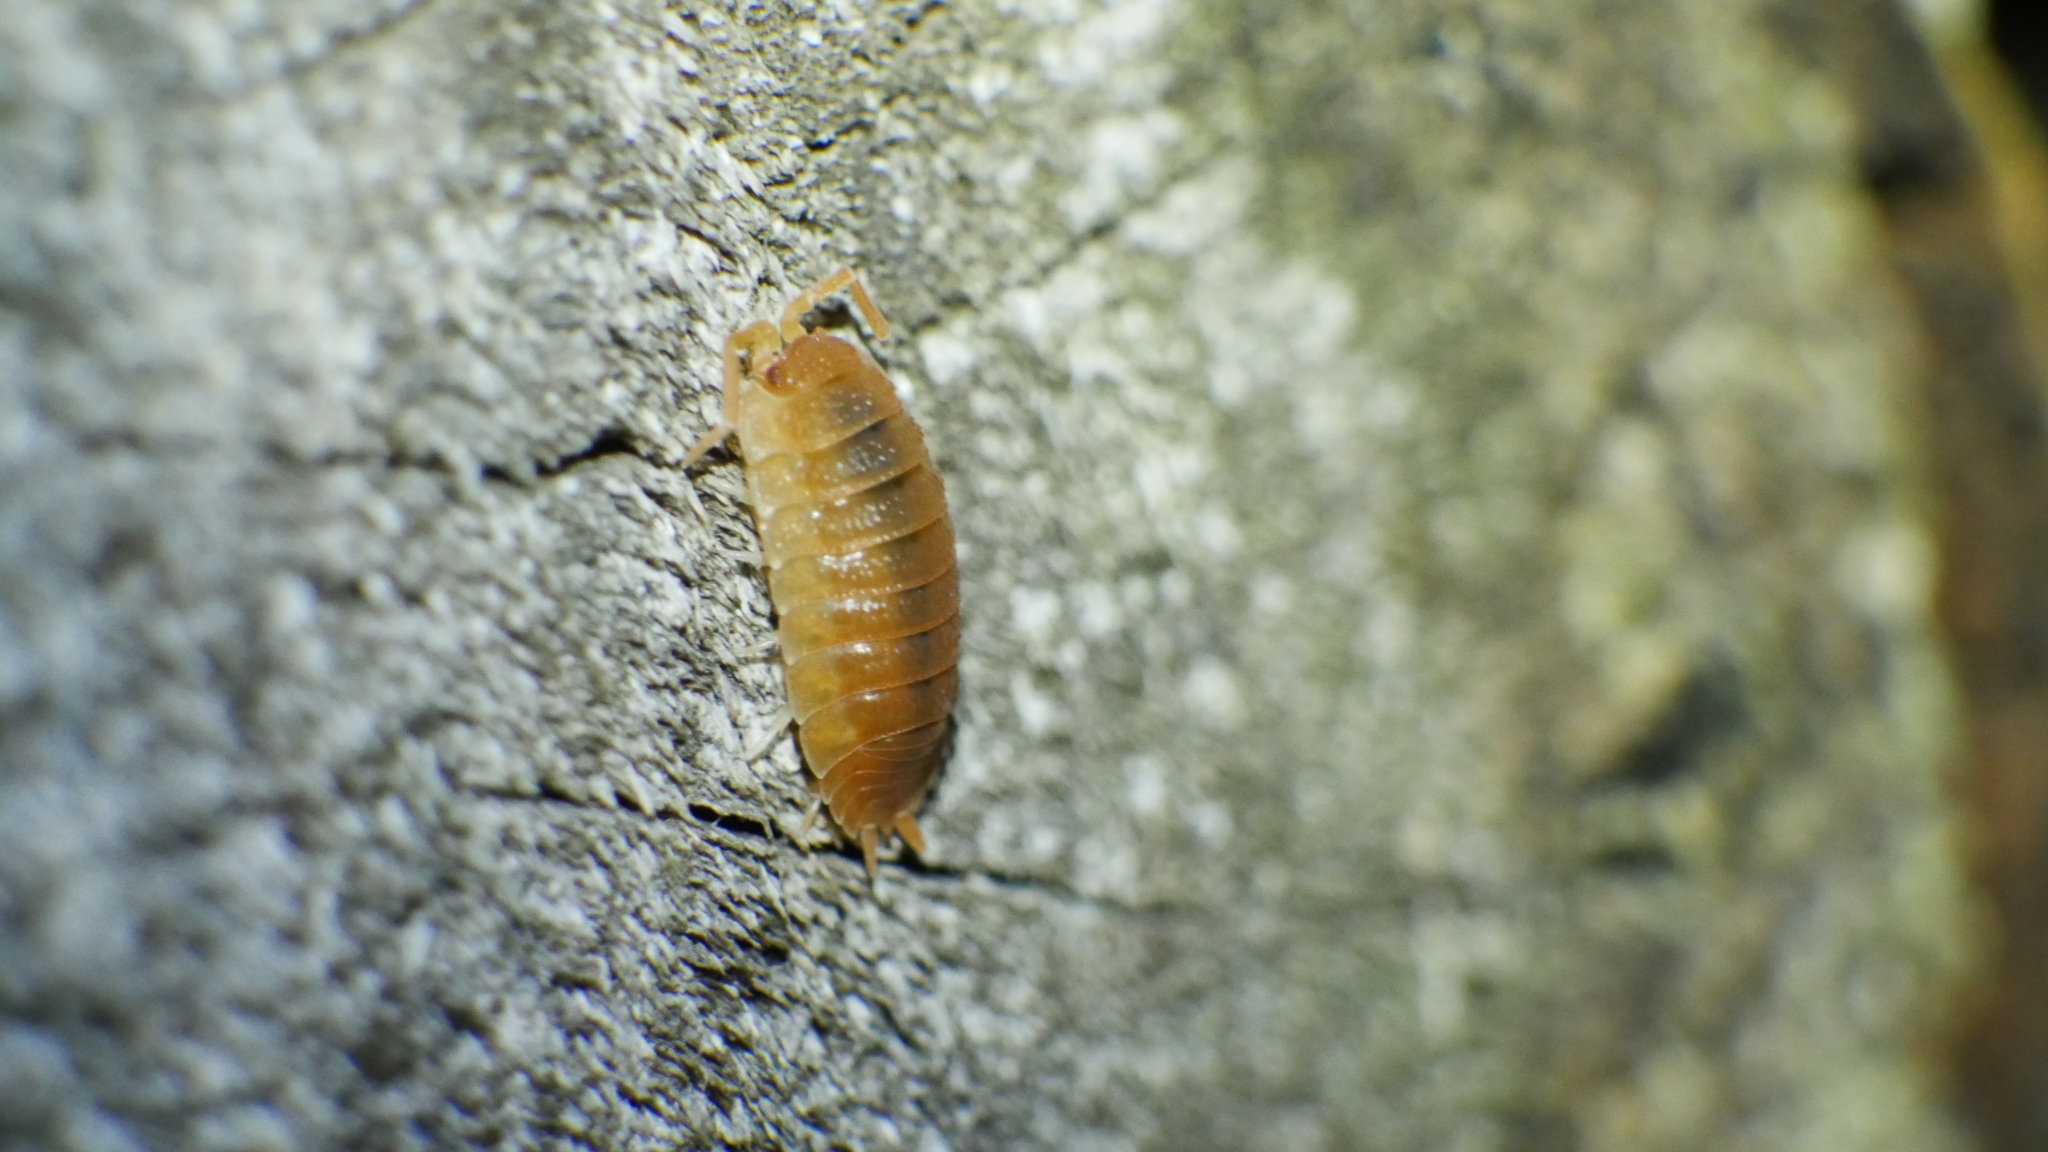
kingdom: Animalia
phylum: Arthropoda
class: Malacostraca
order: Isopoda
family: Porcellionidae
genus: Porcellio
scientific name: Porcellio scaber
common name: Common rough woodlouse
